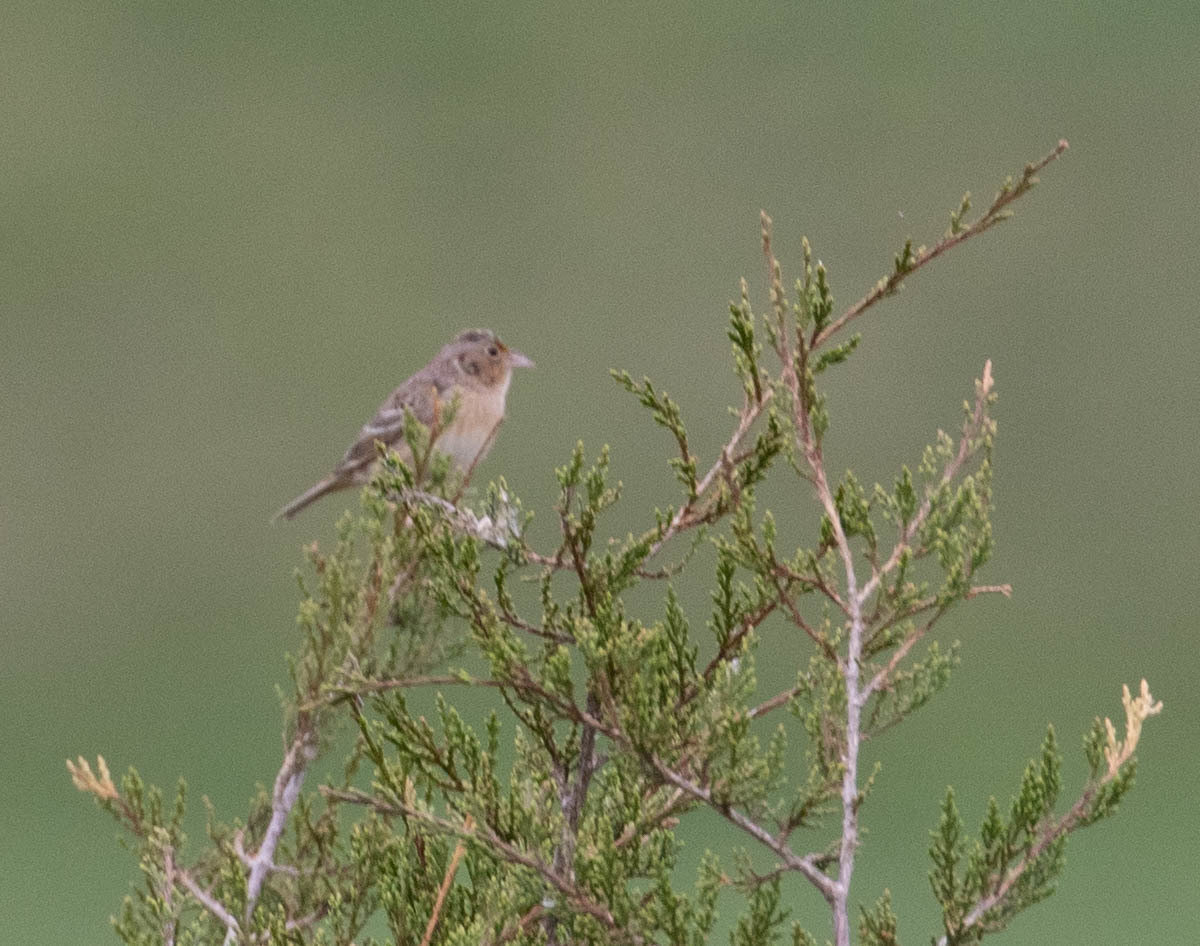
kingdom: Animalia
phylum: Chordata
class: Aves
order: Passeriformes
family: Passerellidae
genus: Ammodramus
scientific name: Ammodramus savannarum
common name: Grasshopper sparrow
